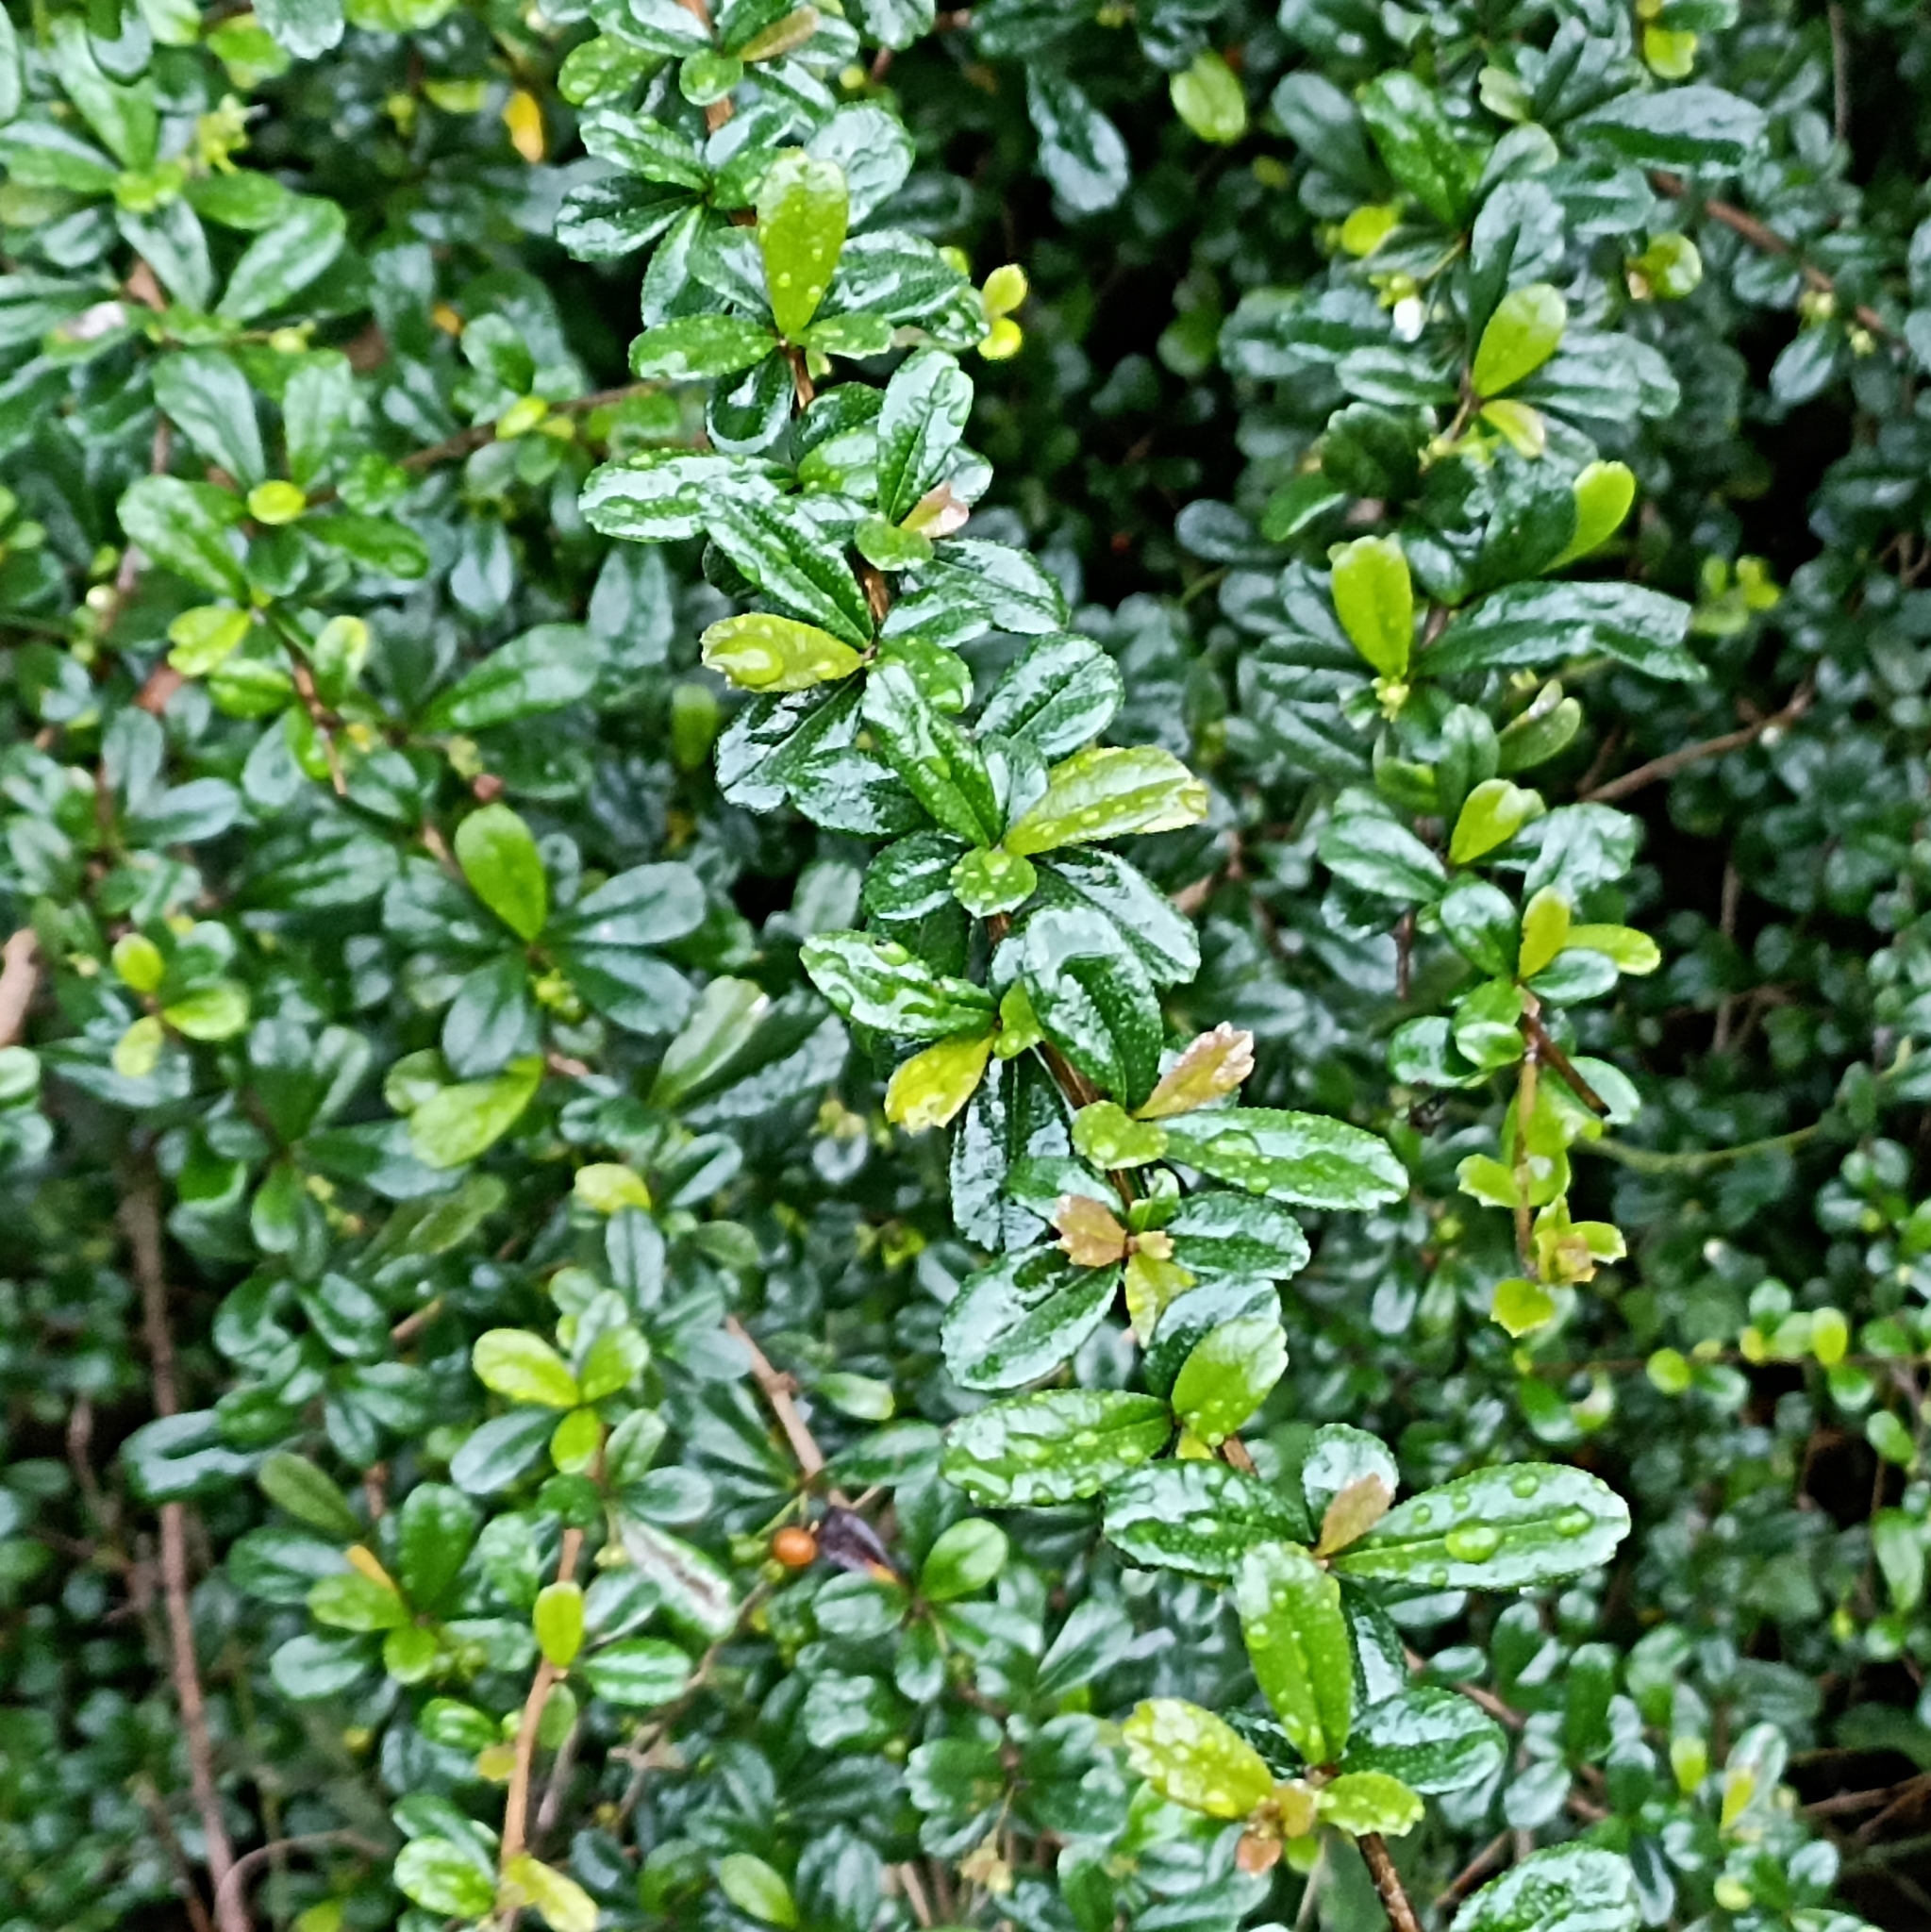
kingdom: Plantae
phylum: Tracheophyta
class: Magnoliopsida
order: Boraginales
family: Ehretiaceae
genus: Ehretia
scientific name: Ehretia microphylla
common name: Fukien-tea
